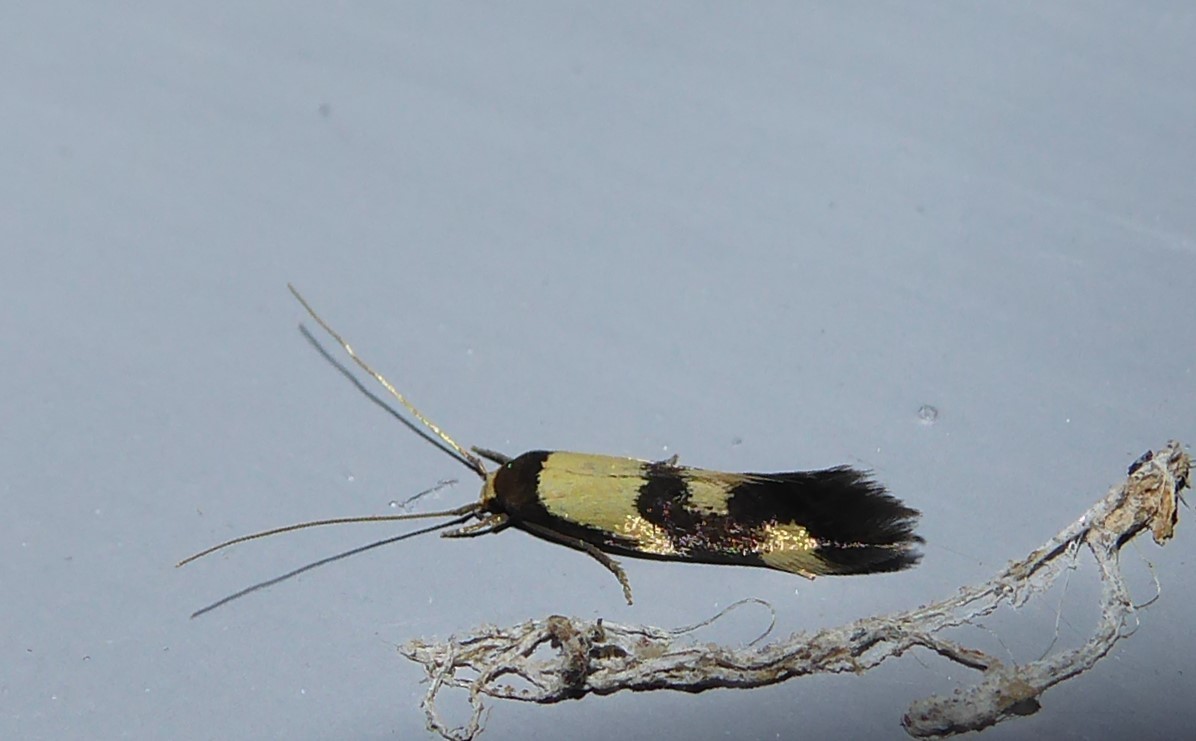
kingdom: Animalia
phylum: Arthropoda
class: Insecta
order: Lepidoptera
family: Tineidae
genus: Opogona
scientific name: Opogona comptella
